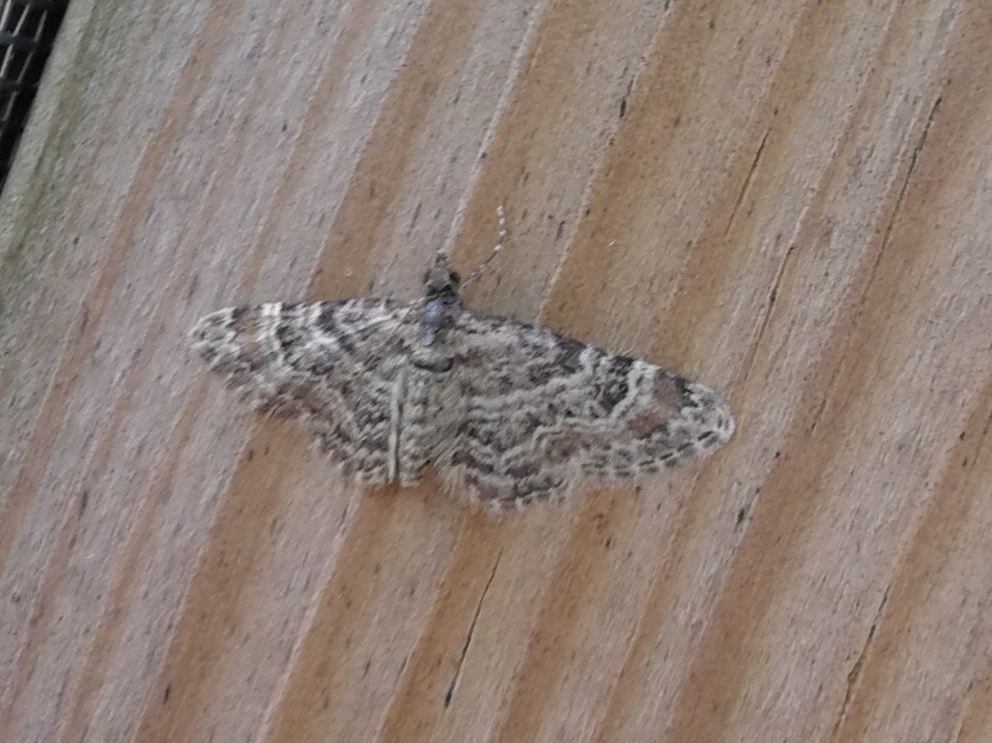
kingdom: Animalia
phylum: Arthropoda
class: Insecta
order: Lepidoptera
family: Geometridae
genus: Gymnoscelis
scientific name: Gymnoscelis rufifasciata
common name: Double-striped pug
